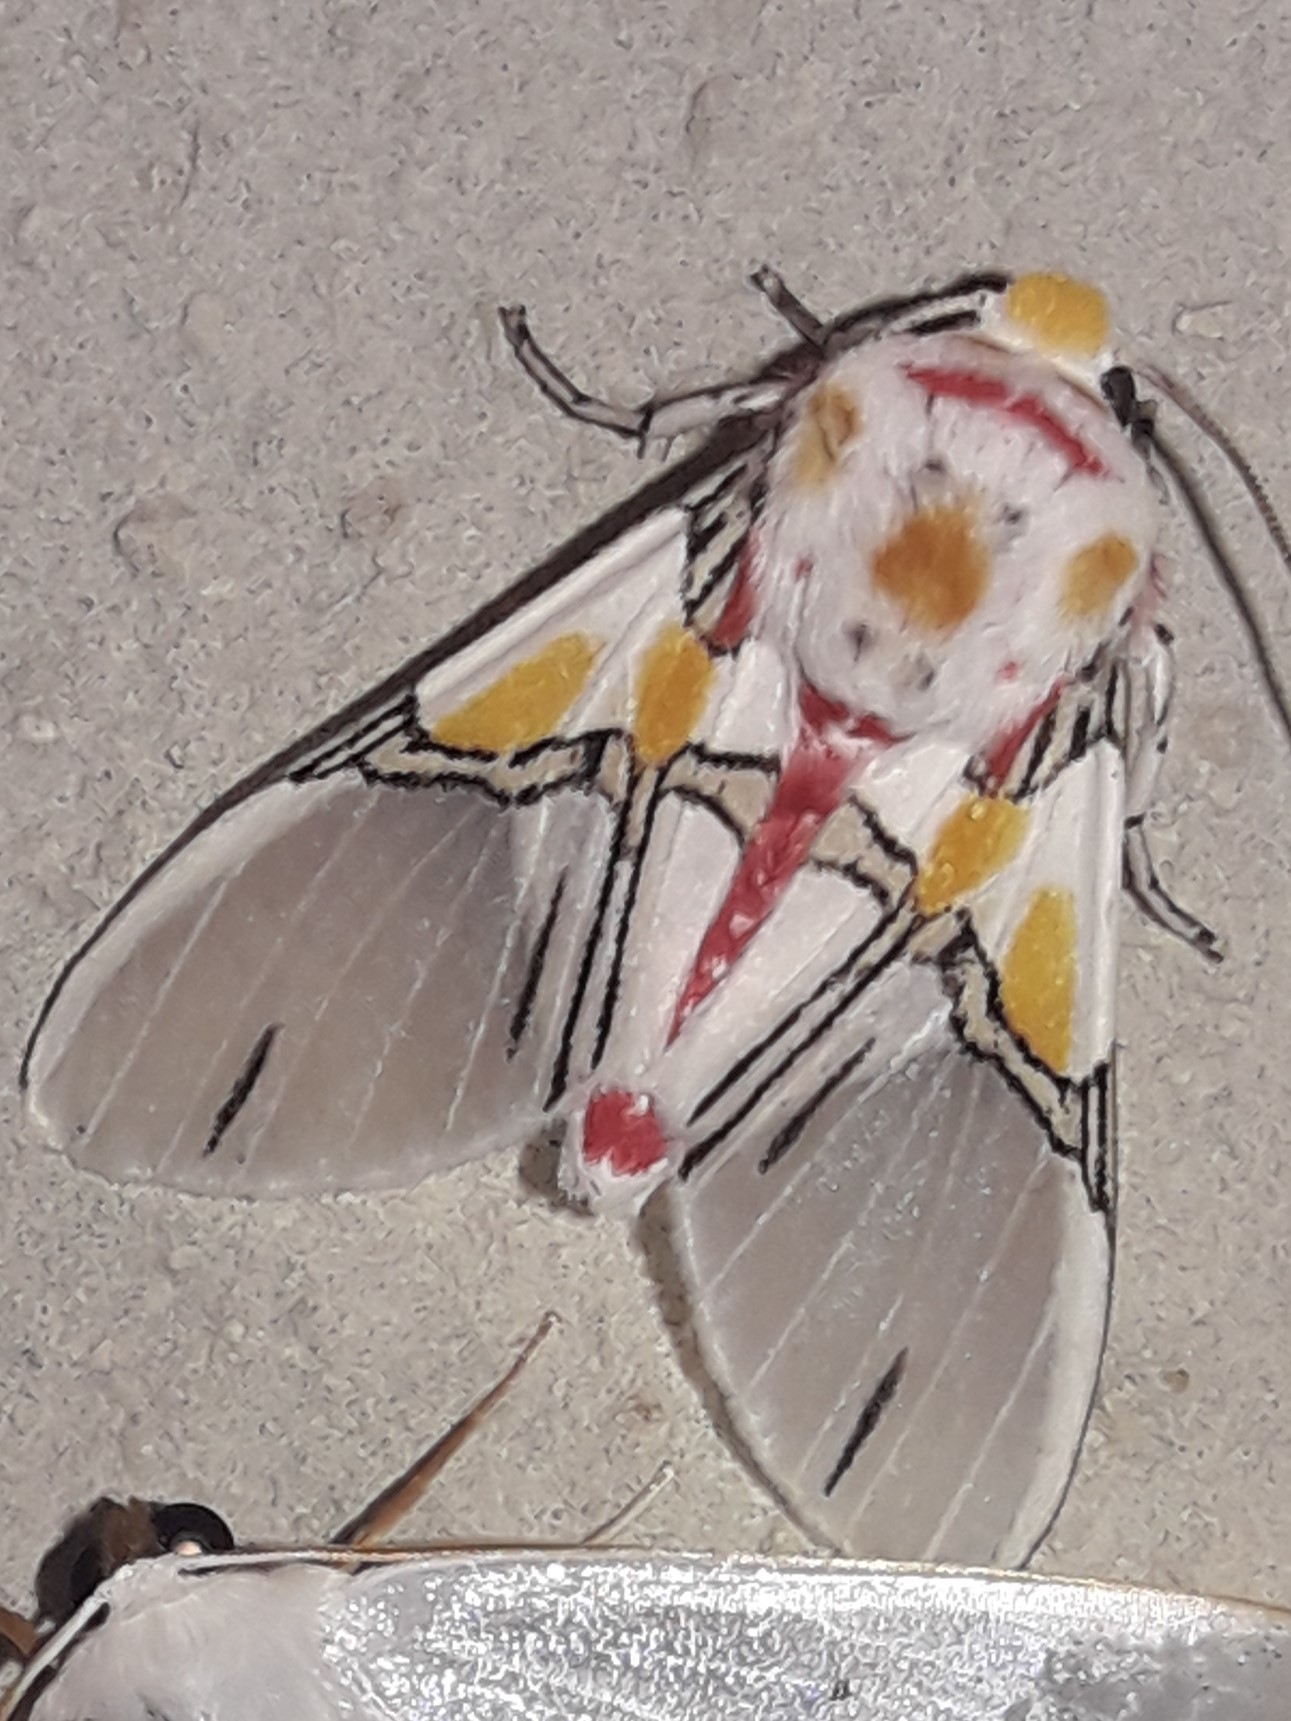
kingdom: Animalia
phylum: Arthropoda
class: Insecta
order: Lepidoptera
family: Erebidae
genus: Idalus
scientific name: Idalus crinis
